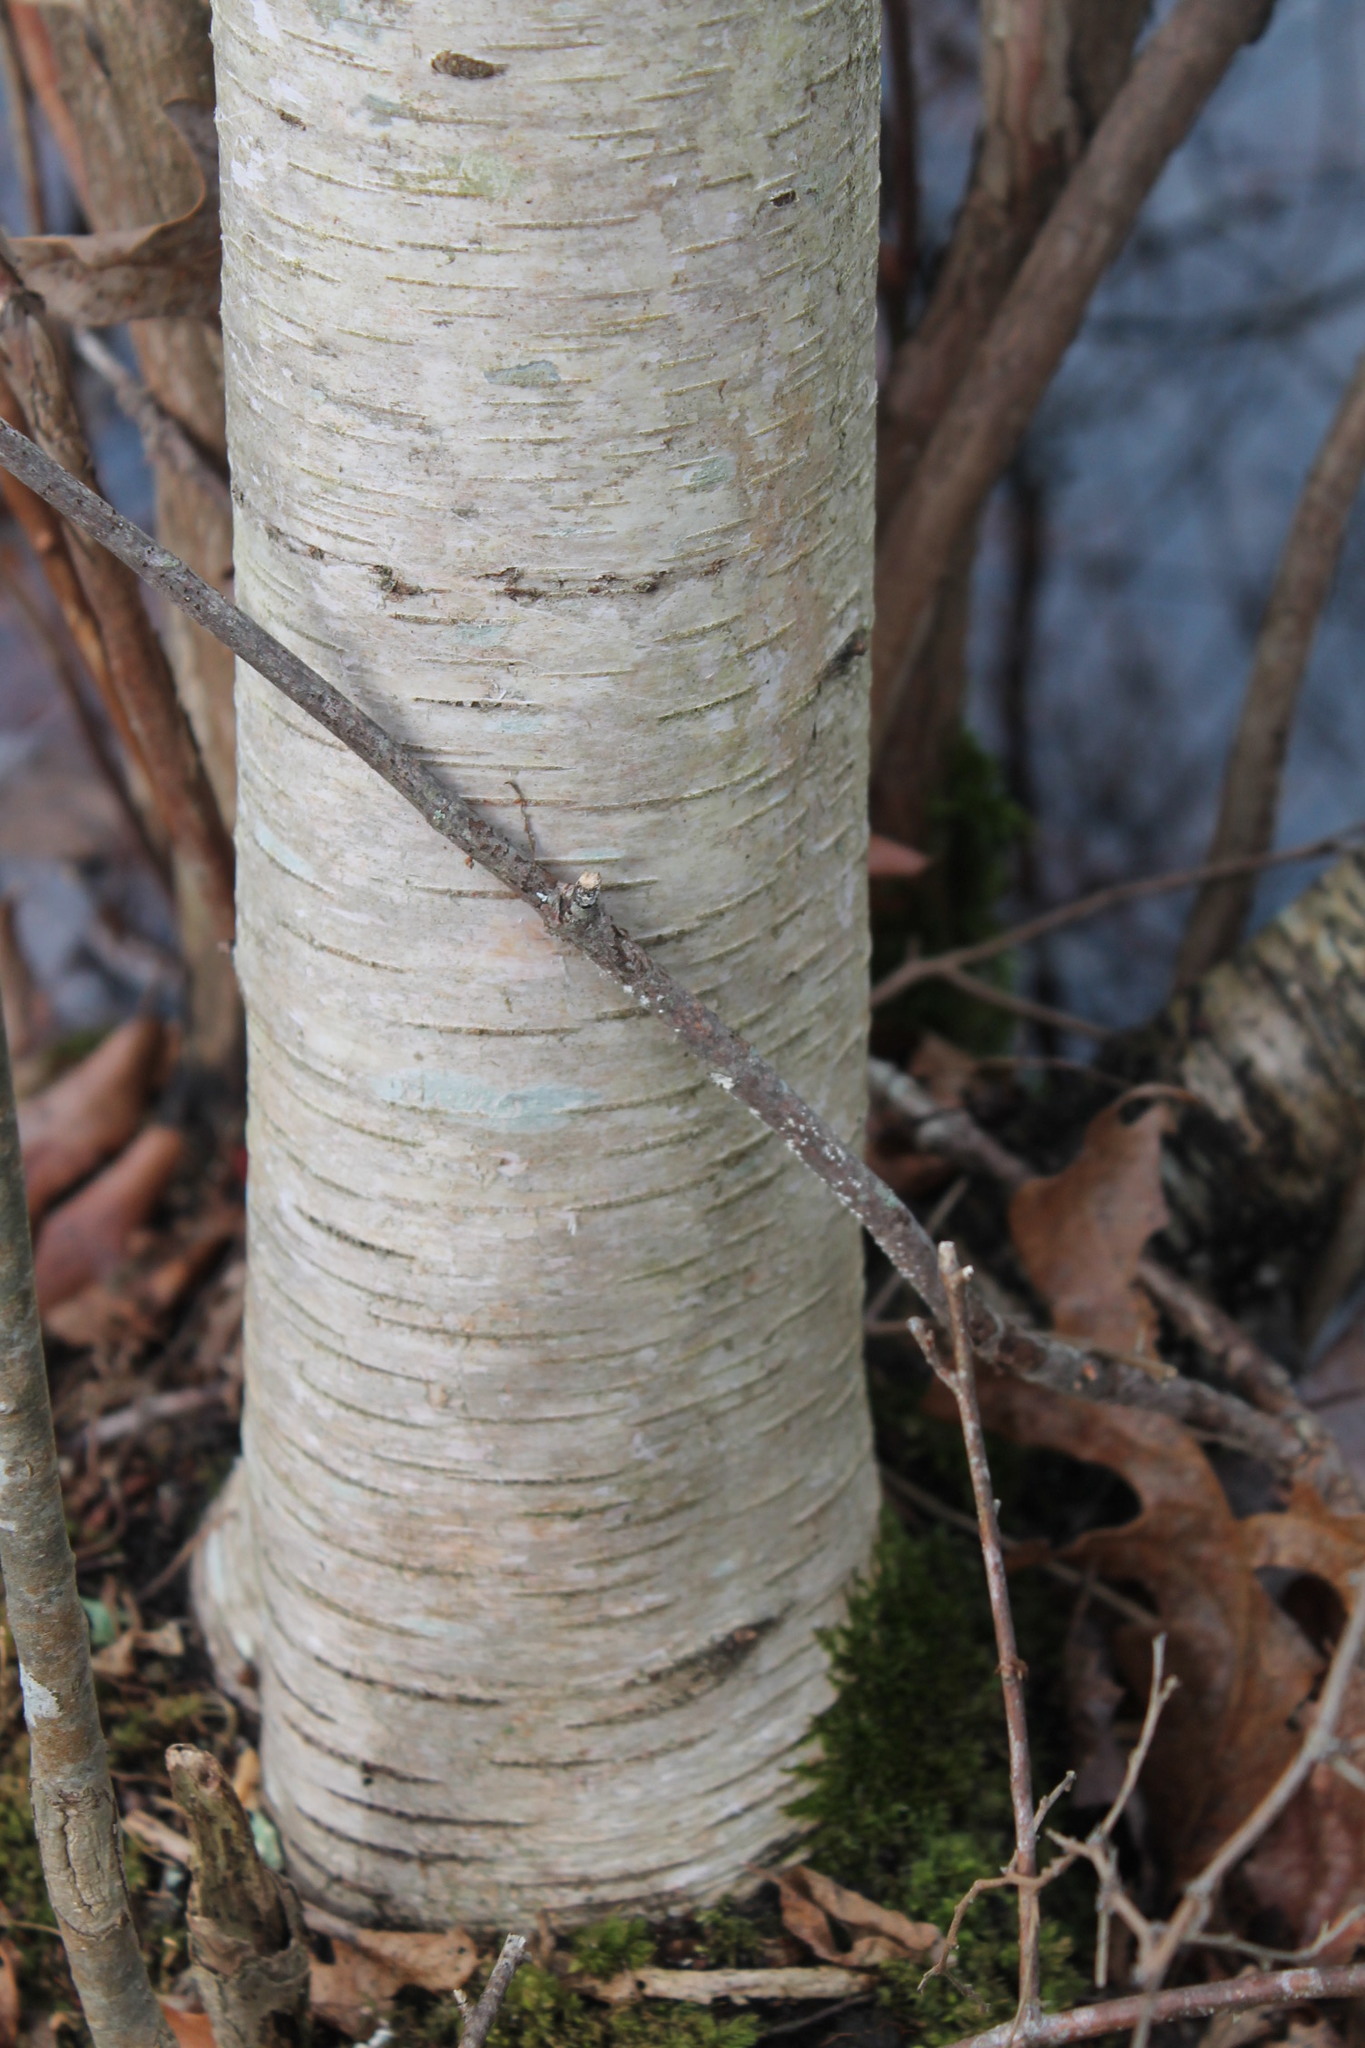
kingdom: Plantae
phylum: Tracheophyta
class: Magnoliopsida
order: Fagales
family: Betulaceae
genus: Betula
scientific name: Betula populifolia
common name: Fire birch
